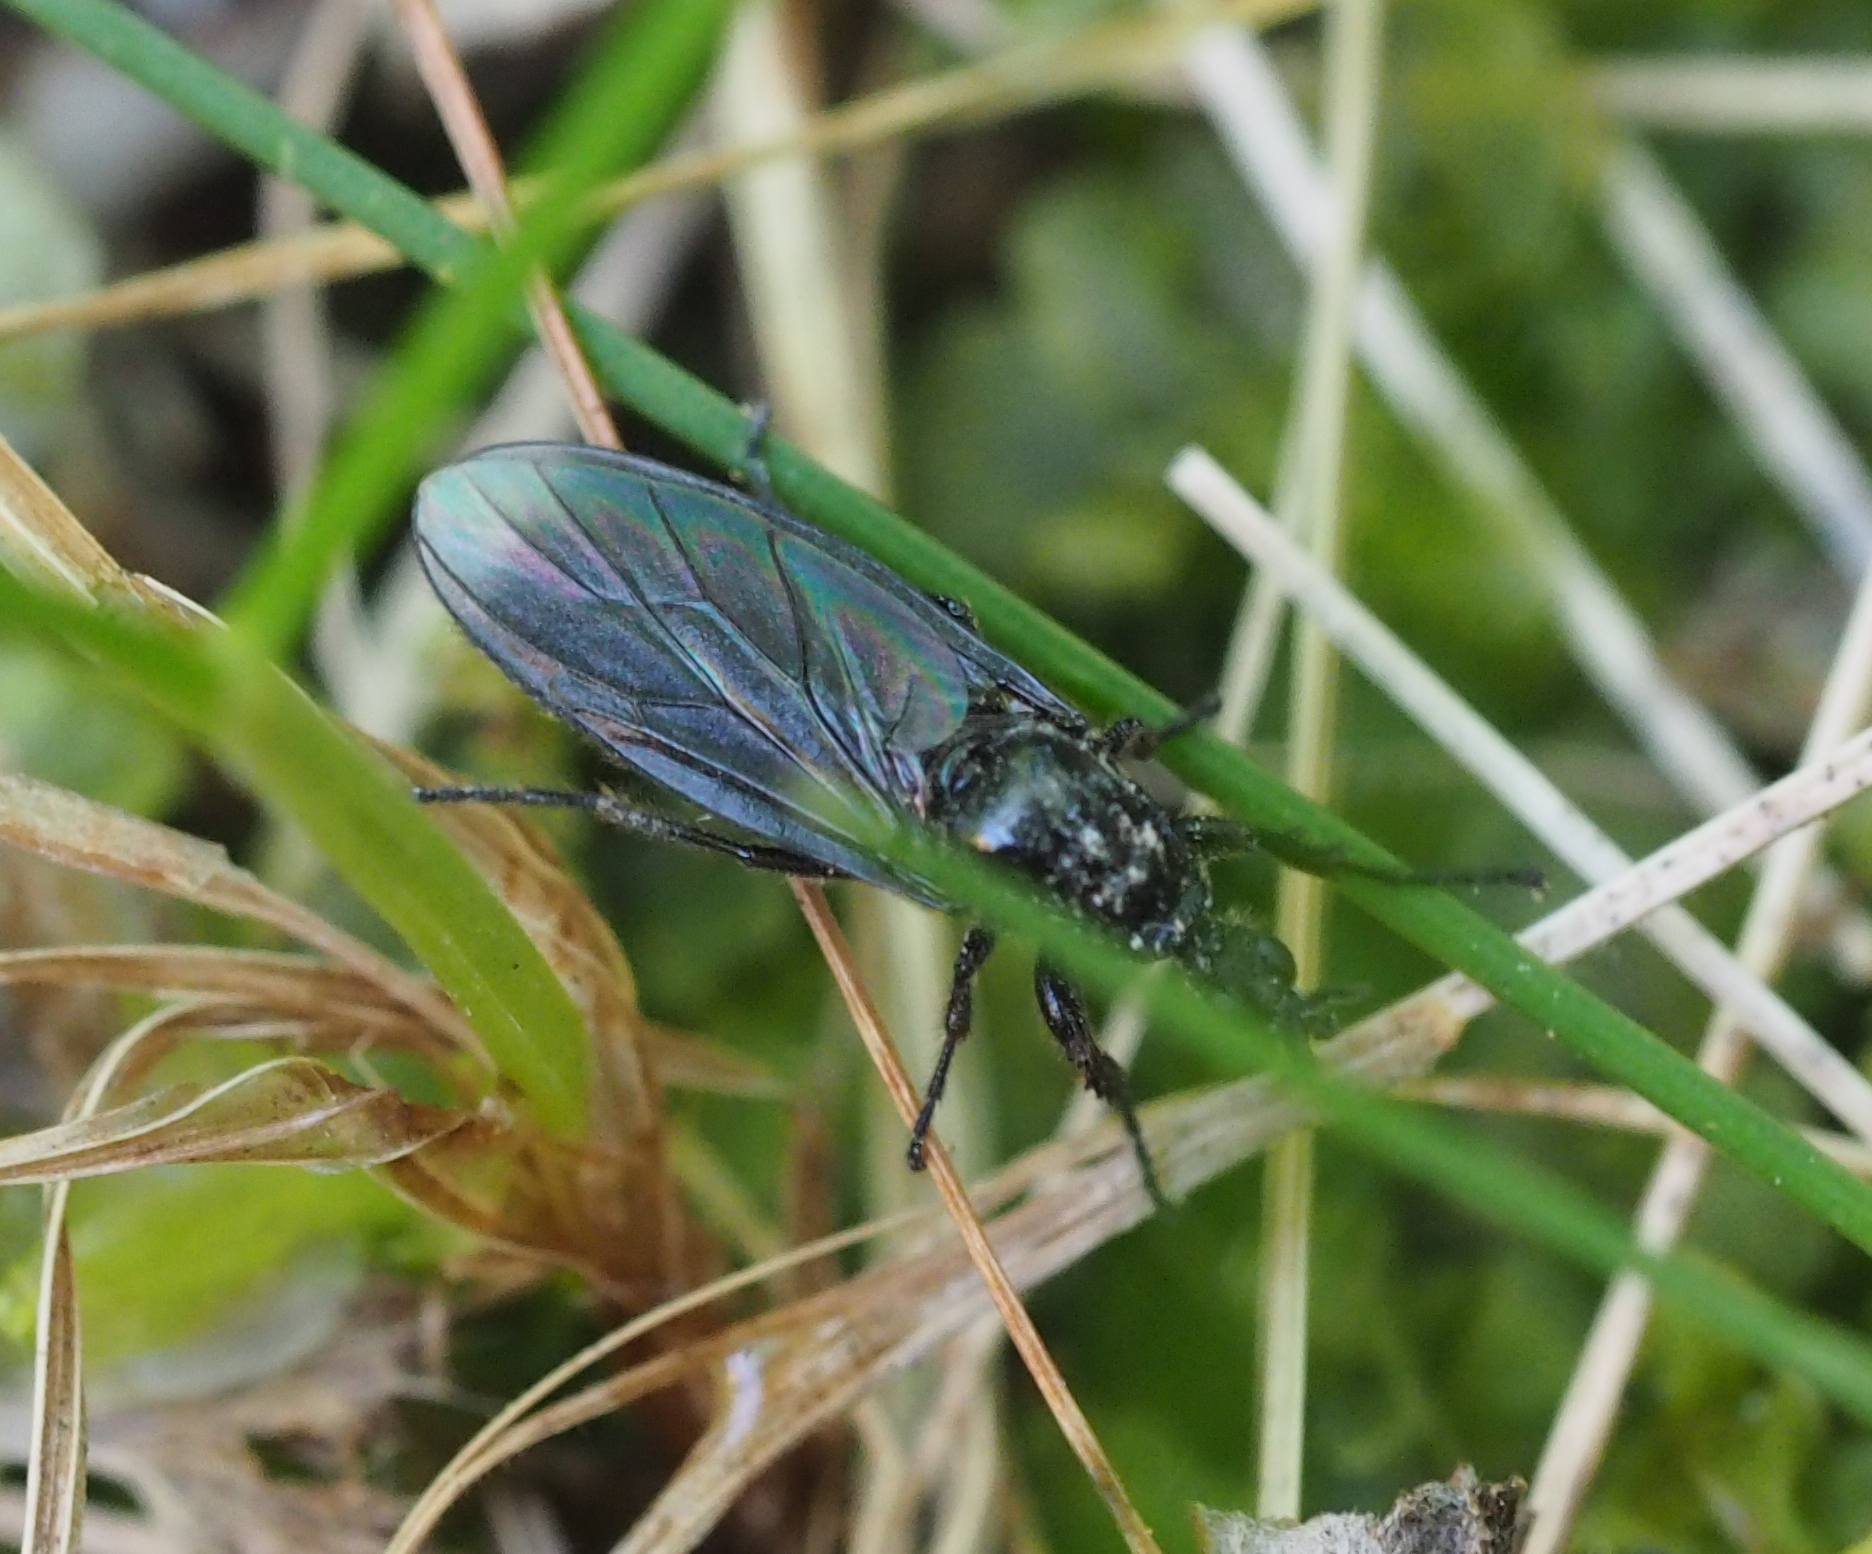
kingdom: Animalia
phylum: Arthropoda
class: Insecta
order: Diptera
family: Bibionidae
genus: Dilophus
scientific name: Dilophus febrilis
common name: Fever fly
